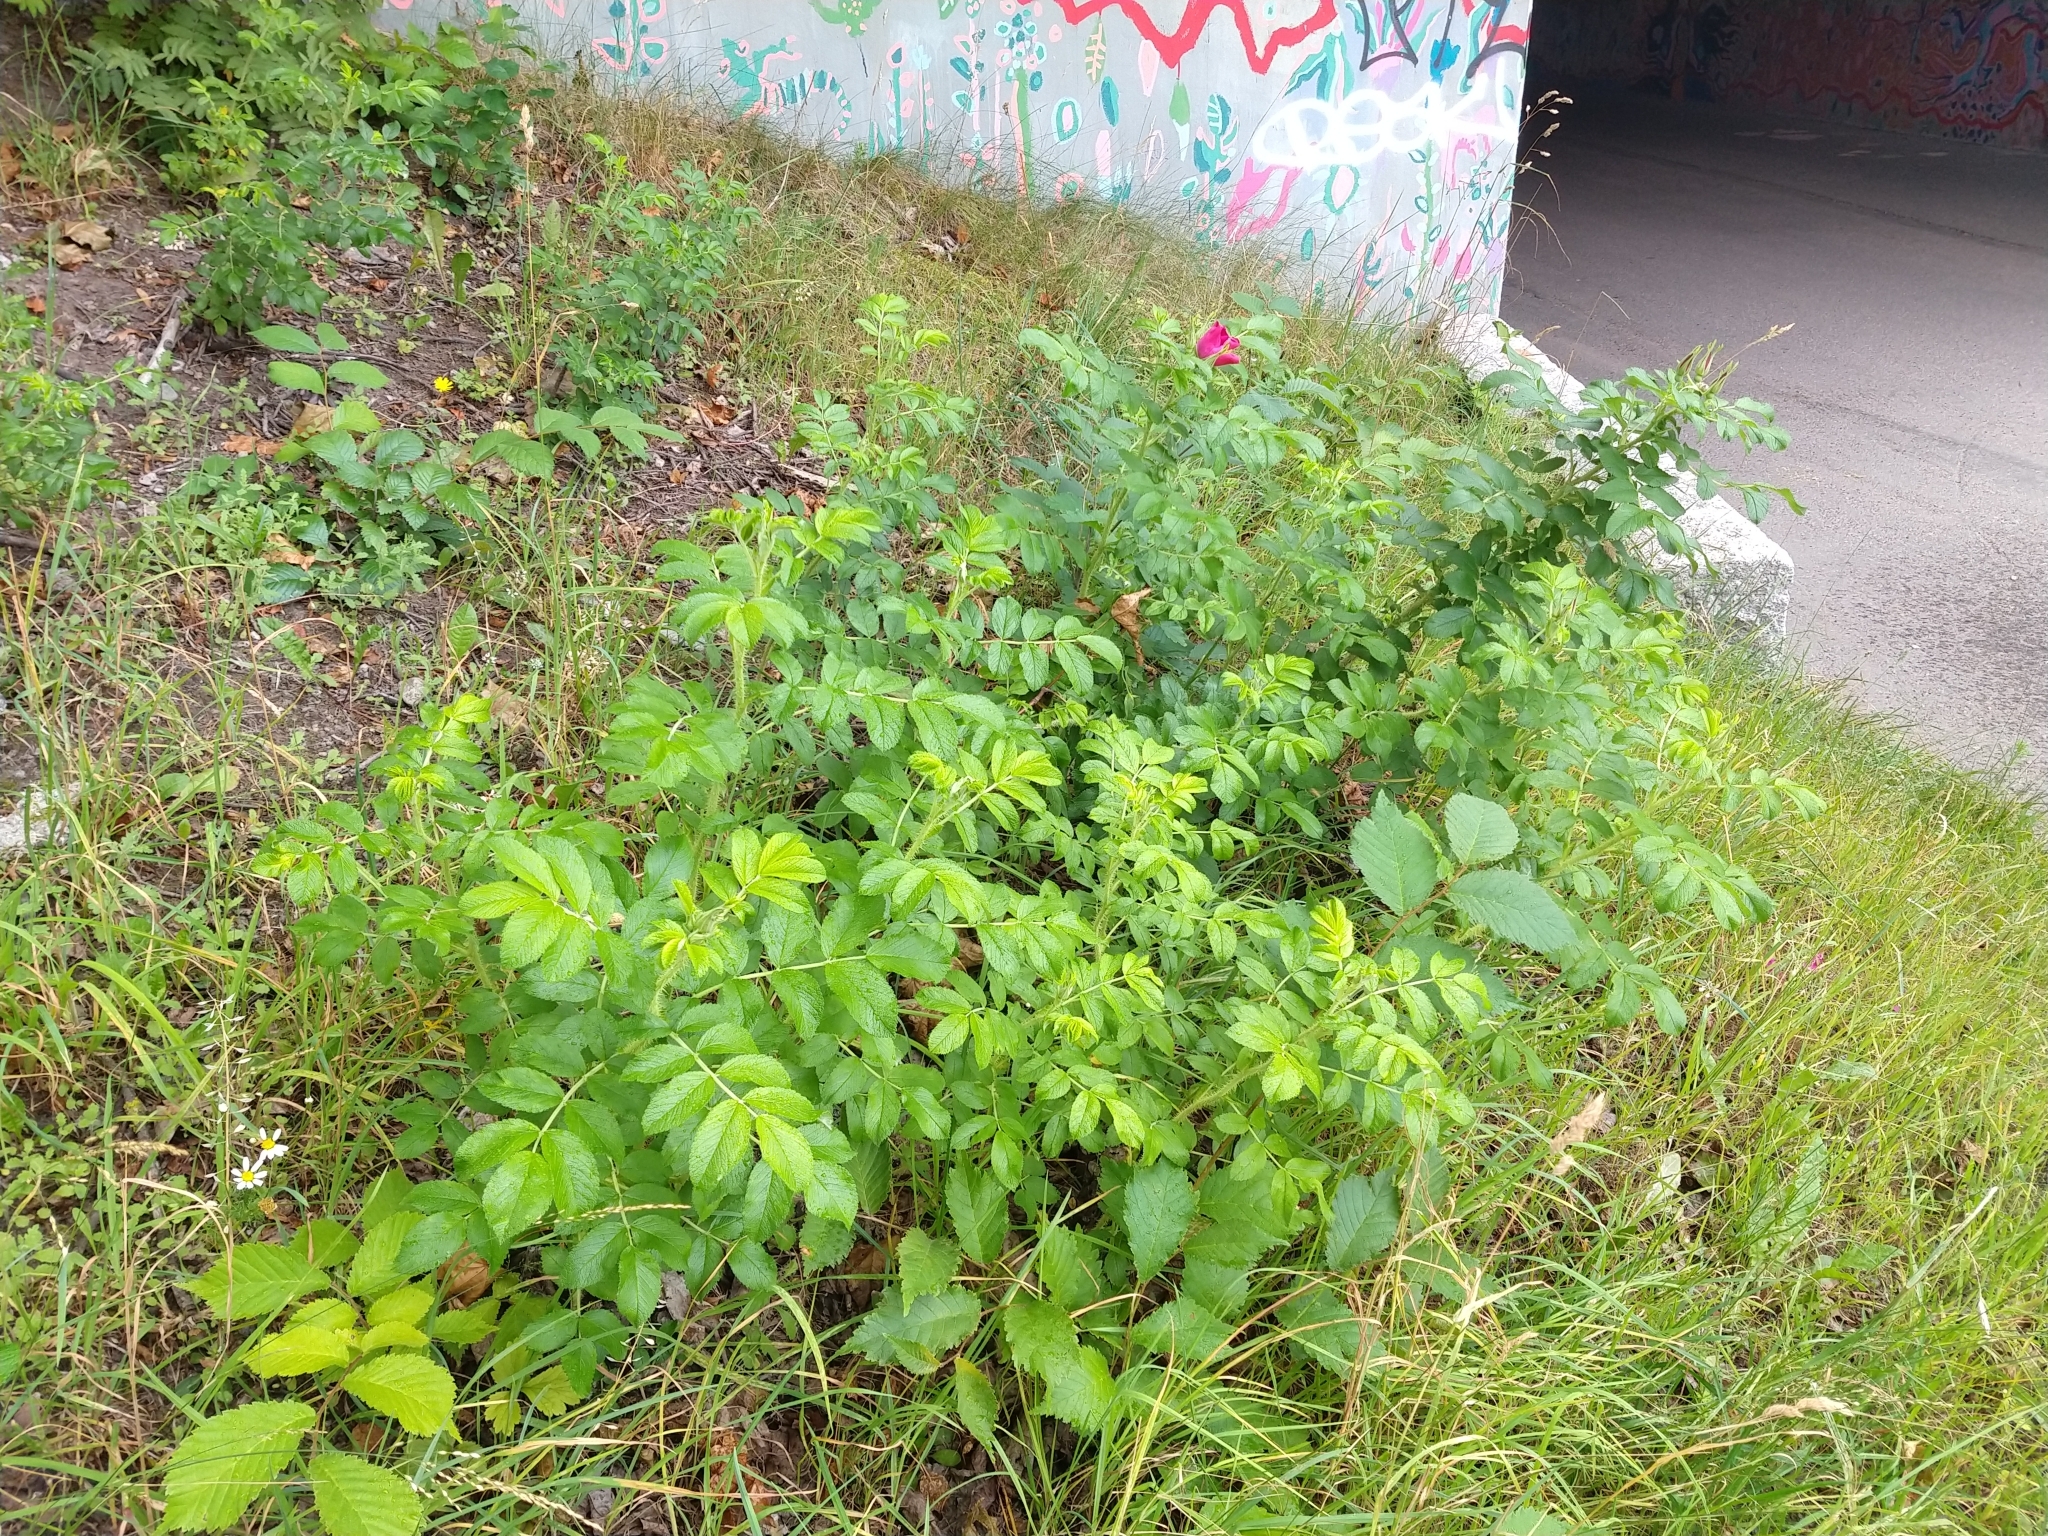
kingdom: Plantae
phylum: Tracheophyta
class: Magnoliopsida
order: Rosales
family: Rosaceae
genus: Rosa
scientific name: Rosa rugosa
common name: Japanese rose
